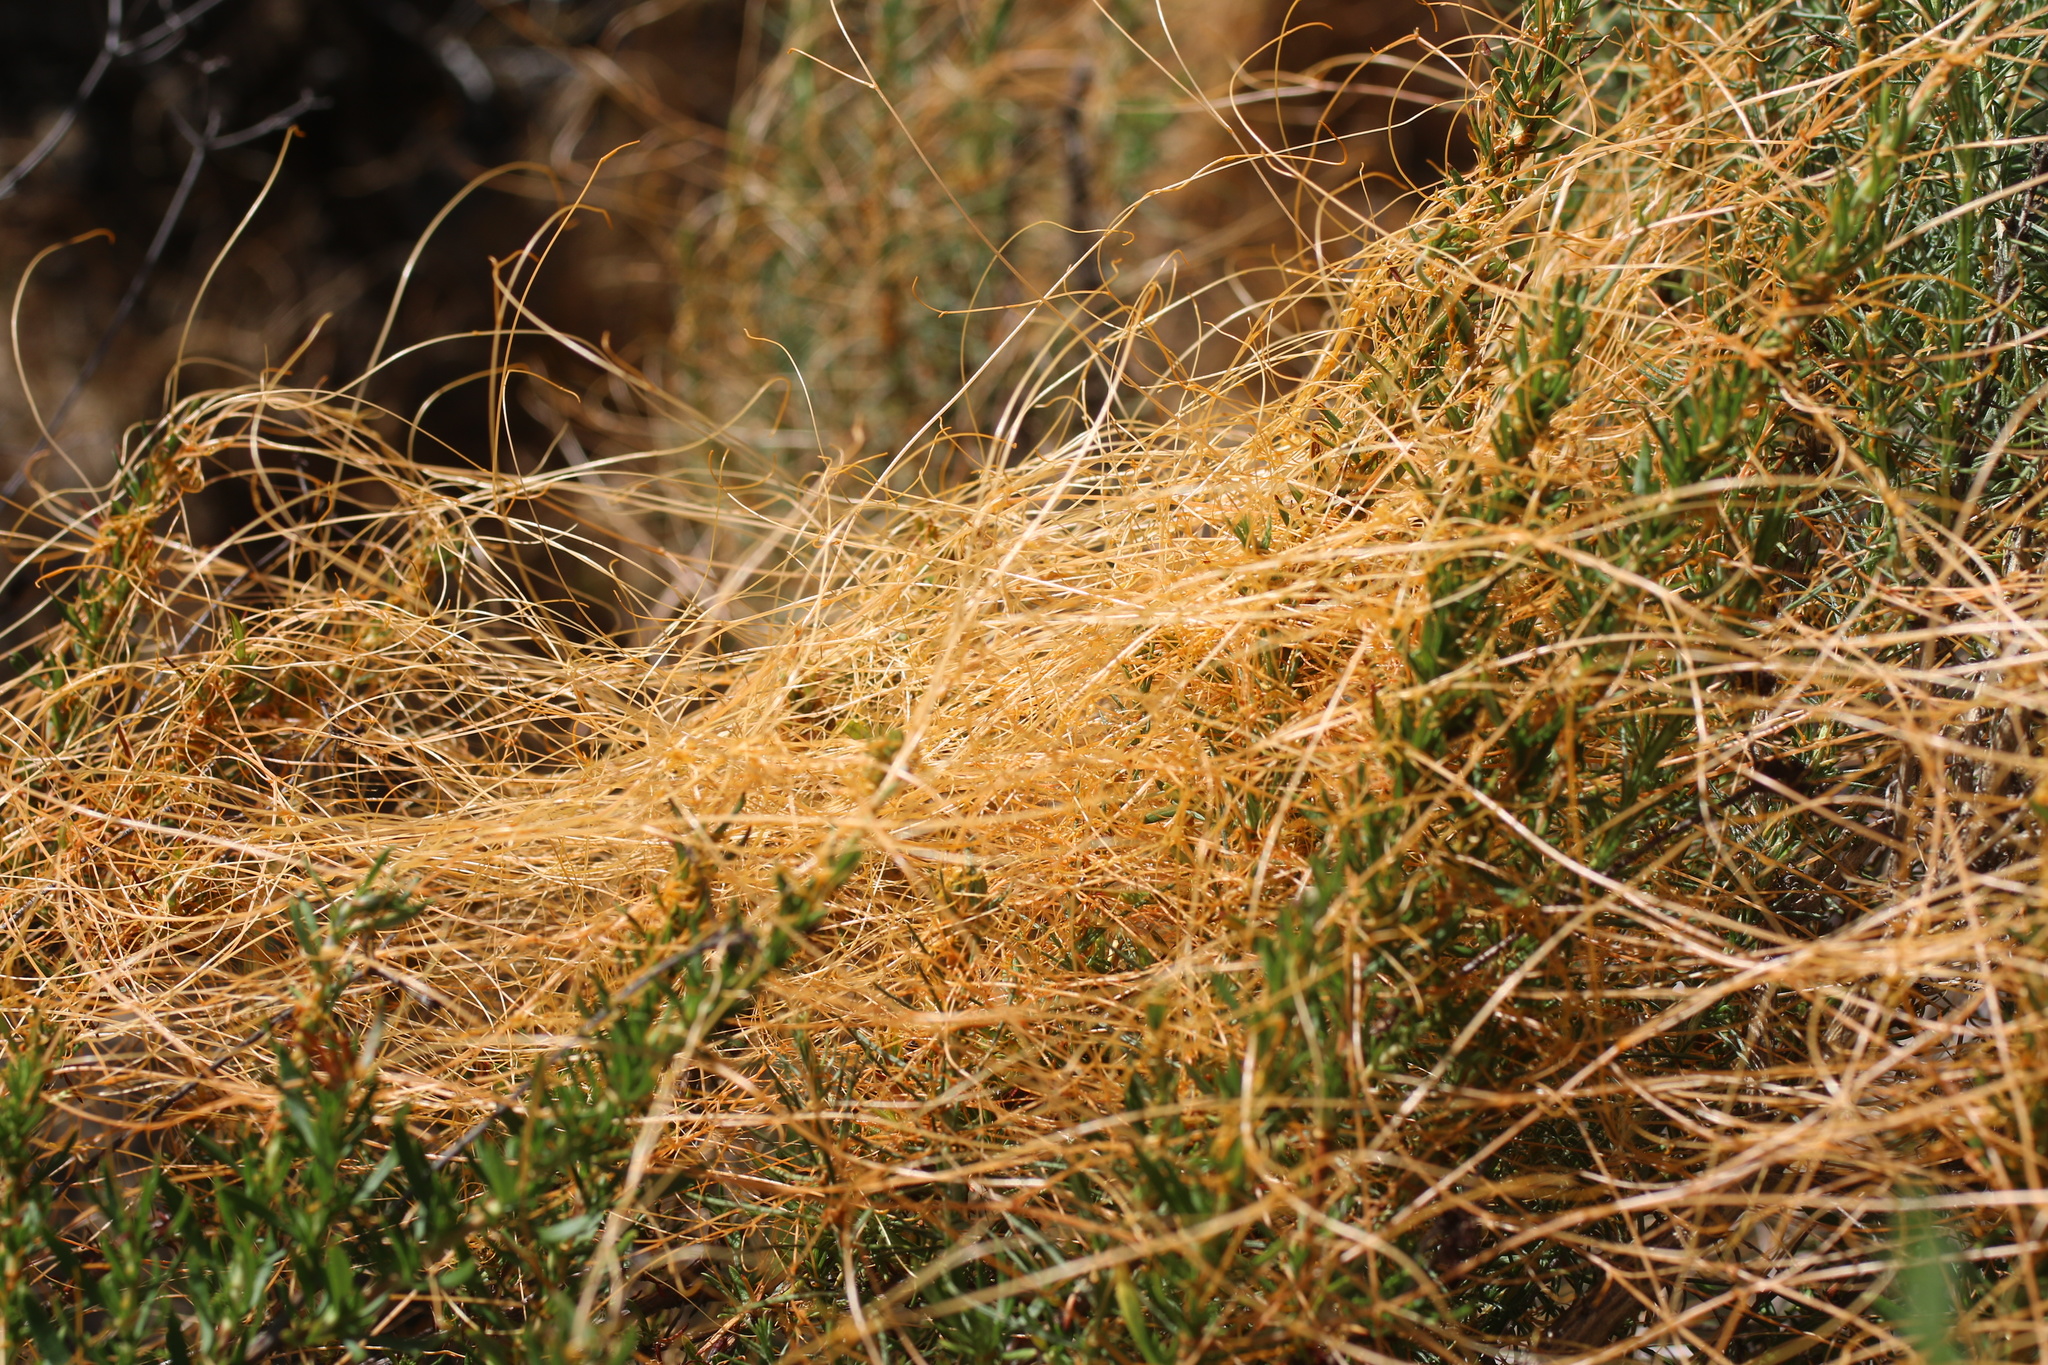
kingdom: Plantae
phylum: Tracheophyta
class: Magnoliopsida
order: Solanales
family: Convolvulaceae
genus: Cuscuta
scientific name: Cuscuta californica
